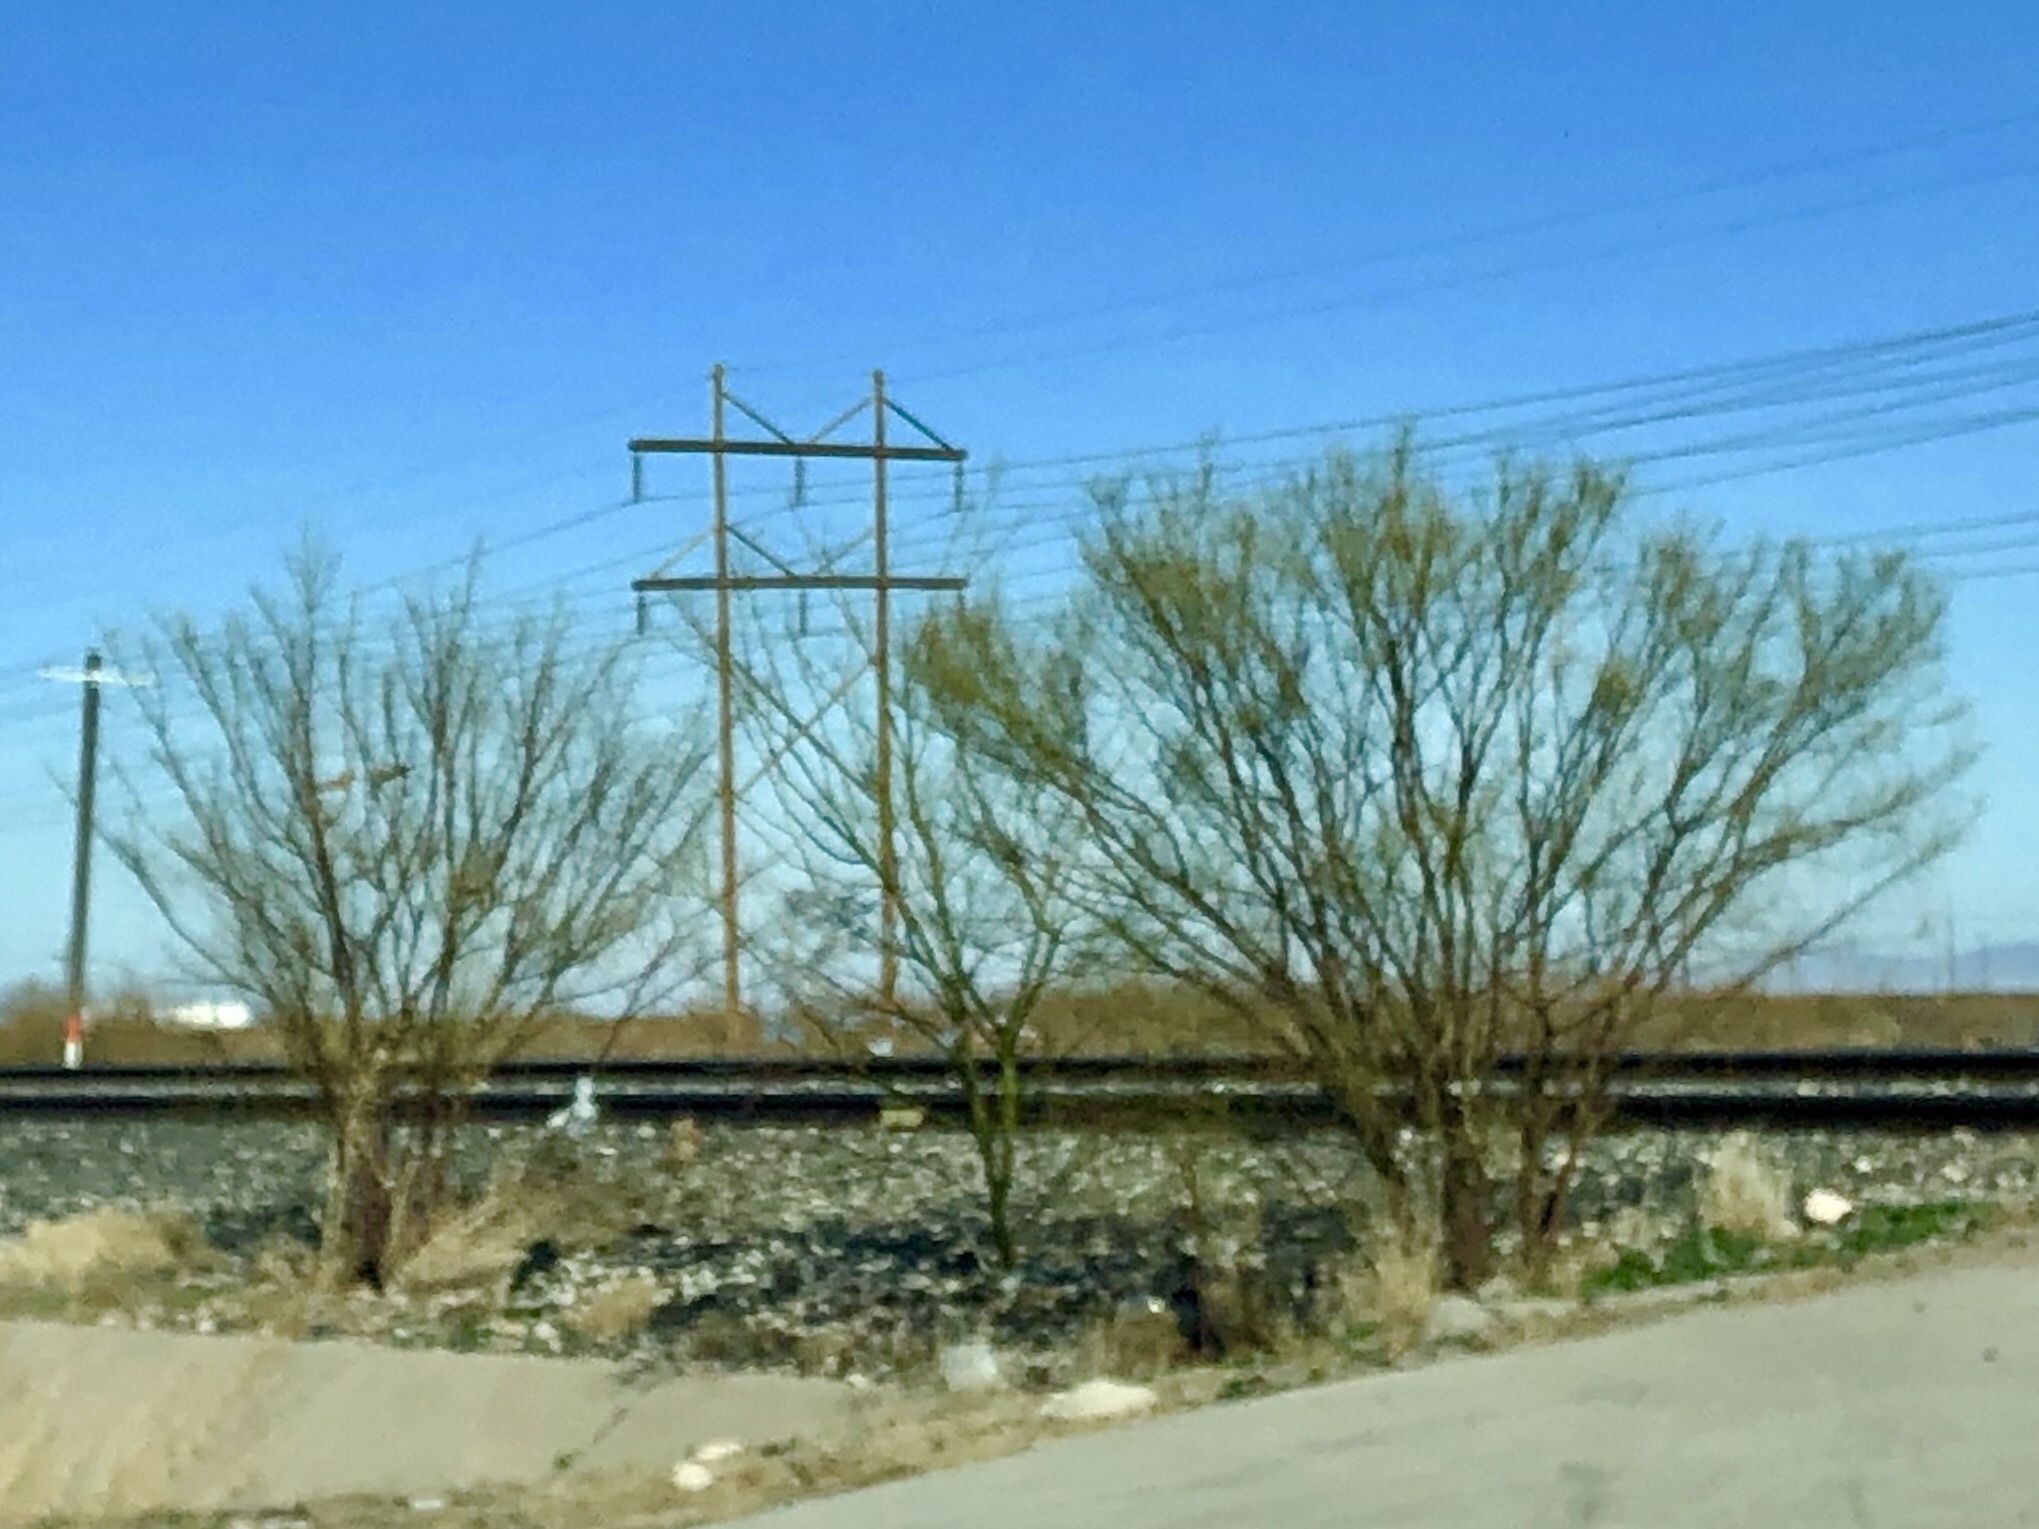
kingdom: Plantae
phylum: Tracheophyta
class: Magnoliopsida
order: Fabales
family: Fabaceae
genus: Parkinsonia
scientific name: Parkinsonia aculeata
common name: Jerusalem thorn
